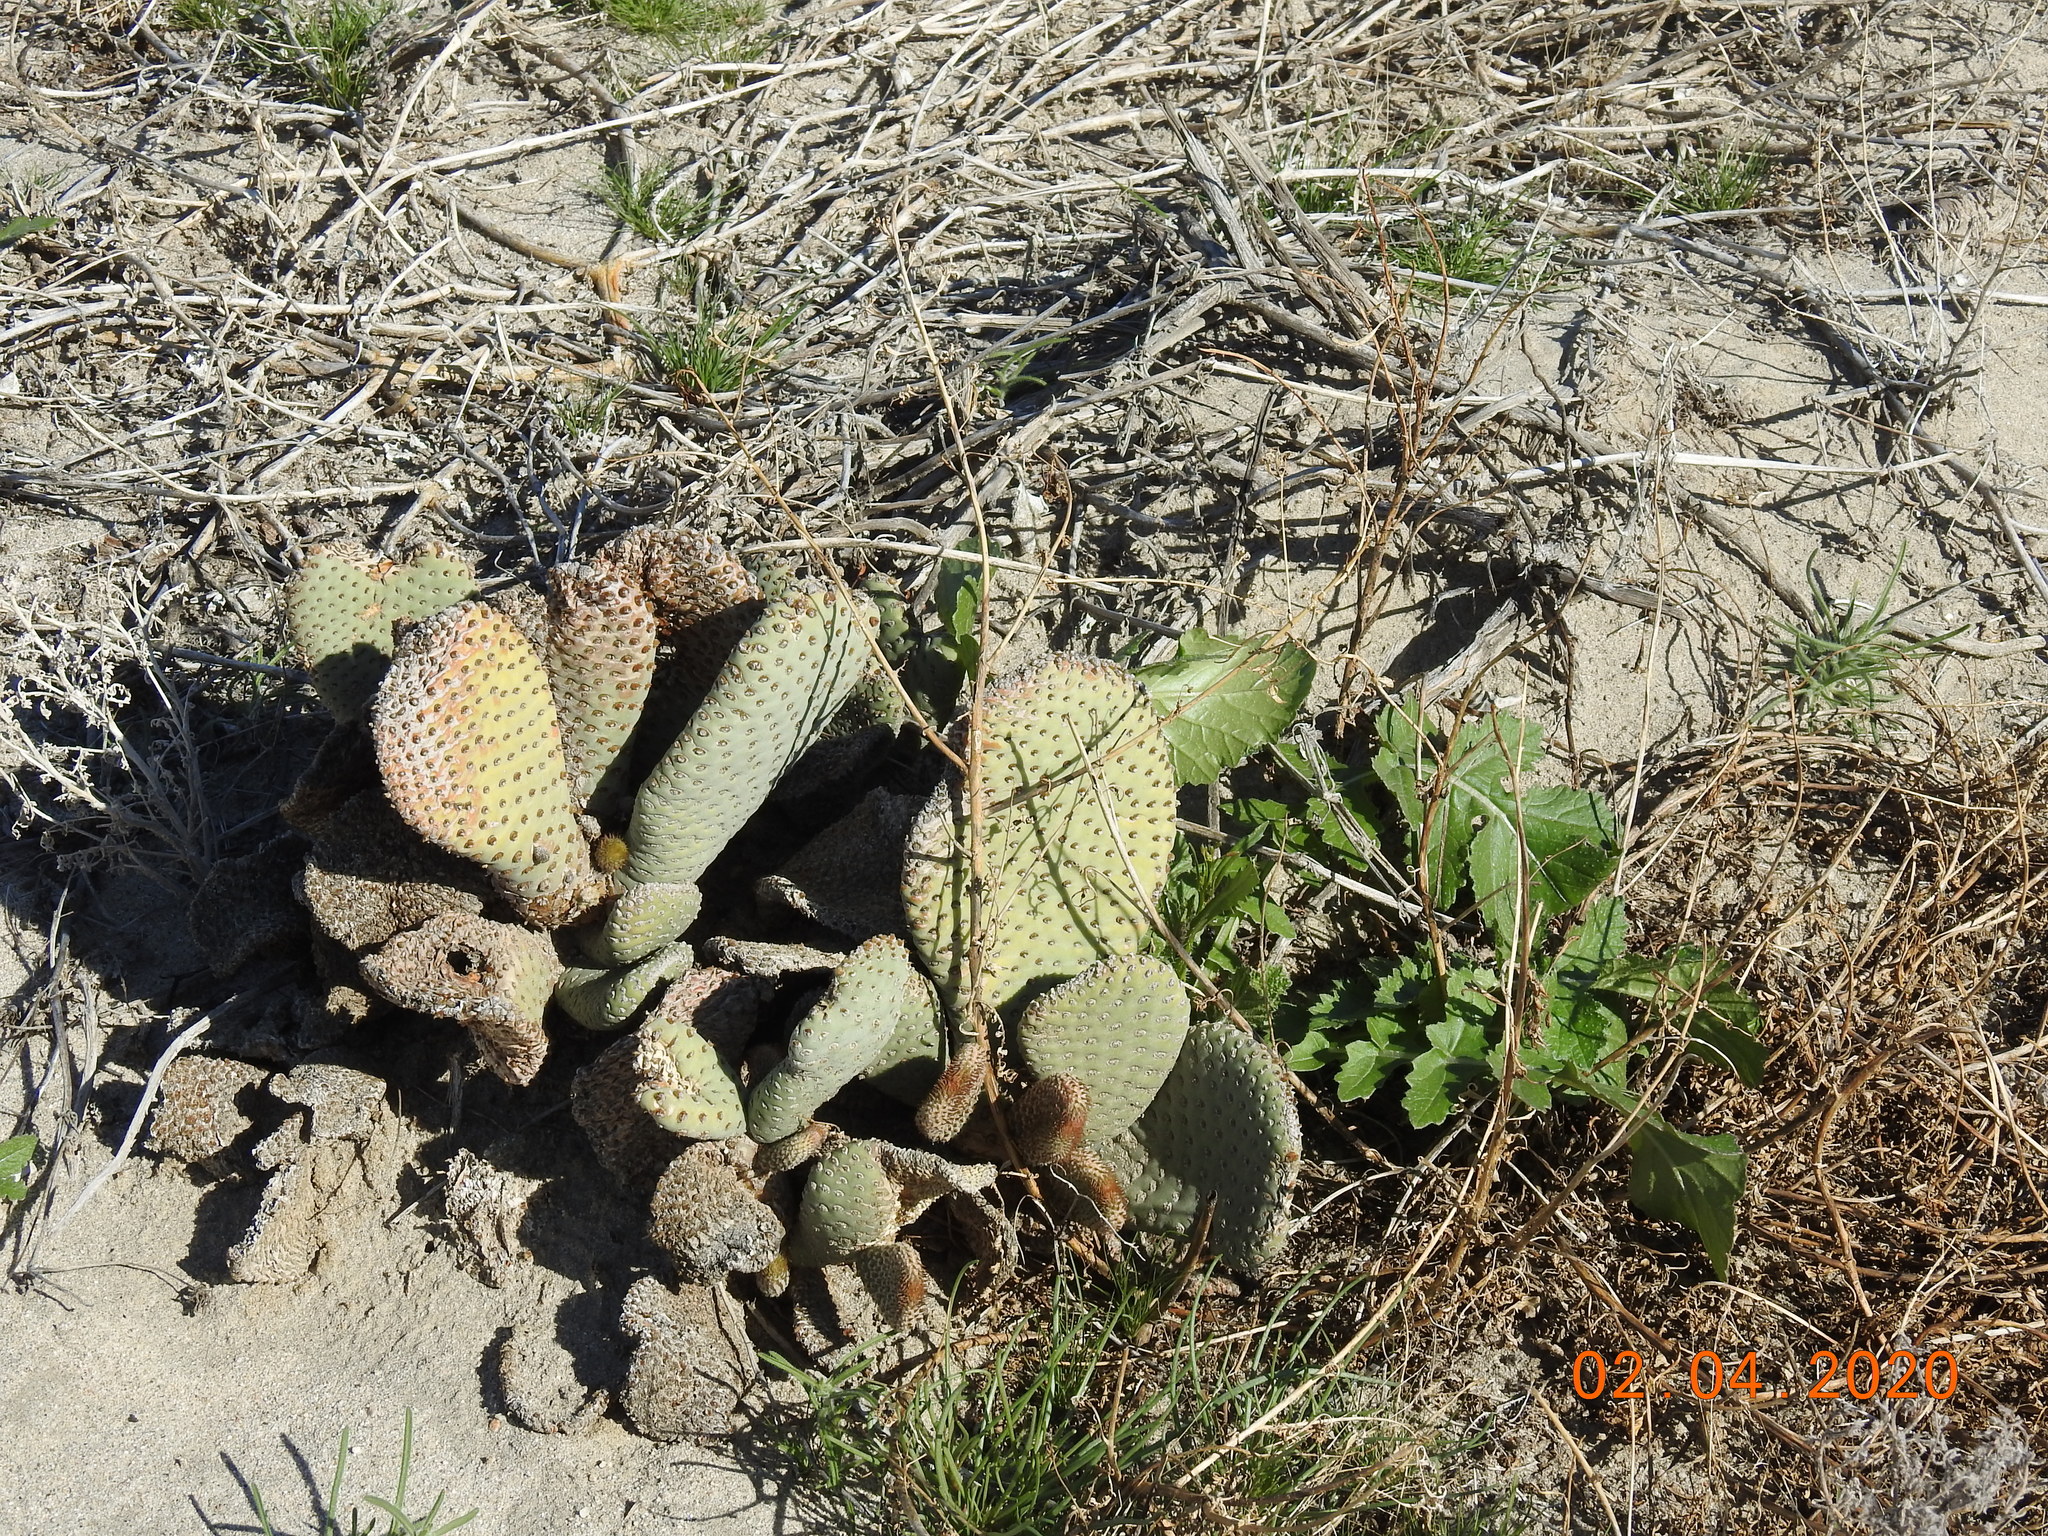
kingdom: Plantae
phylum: Tracheophyta
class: Magnoliopsida
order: Caryophyllales
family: Cactaceae
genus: Opuntia
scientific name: Opuntia basilaris
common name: Beavertail prickly-pear
